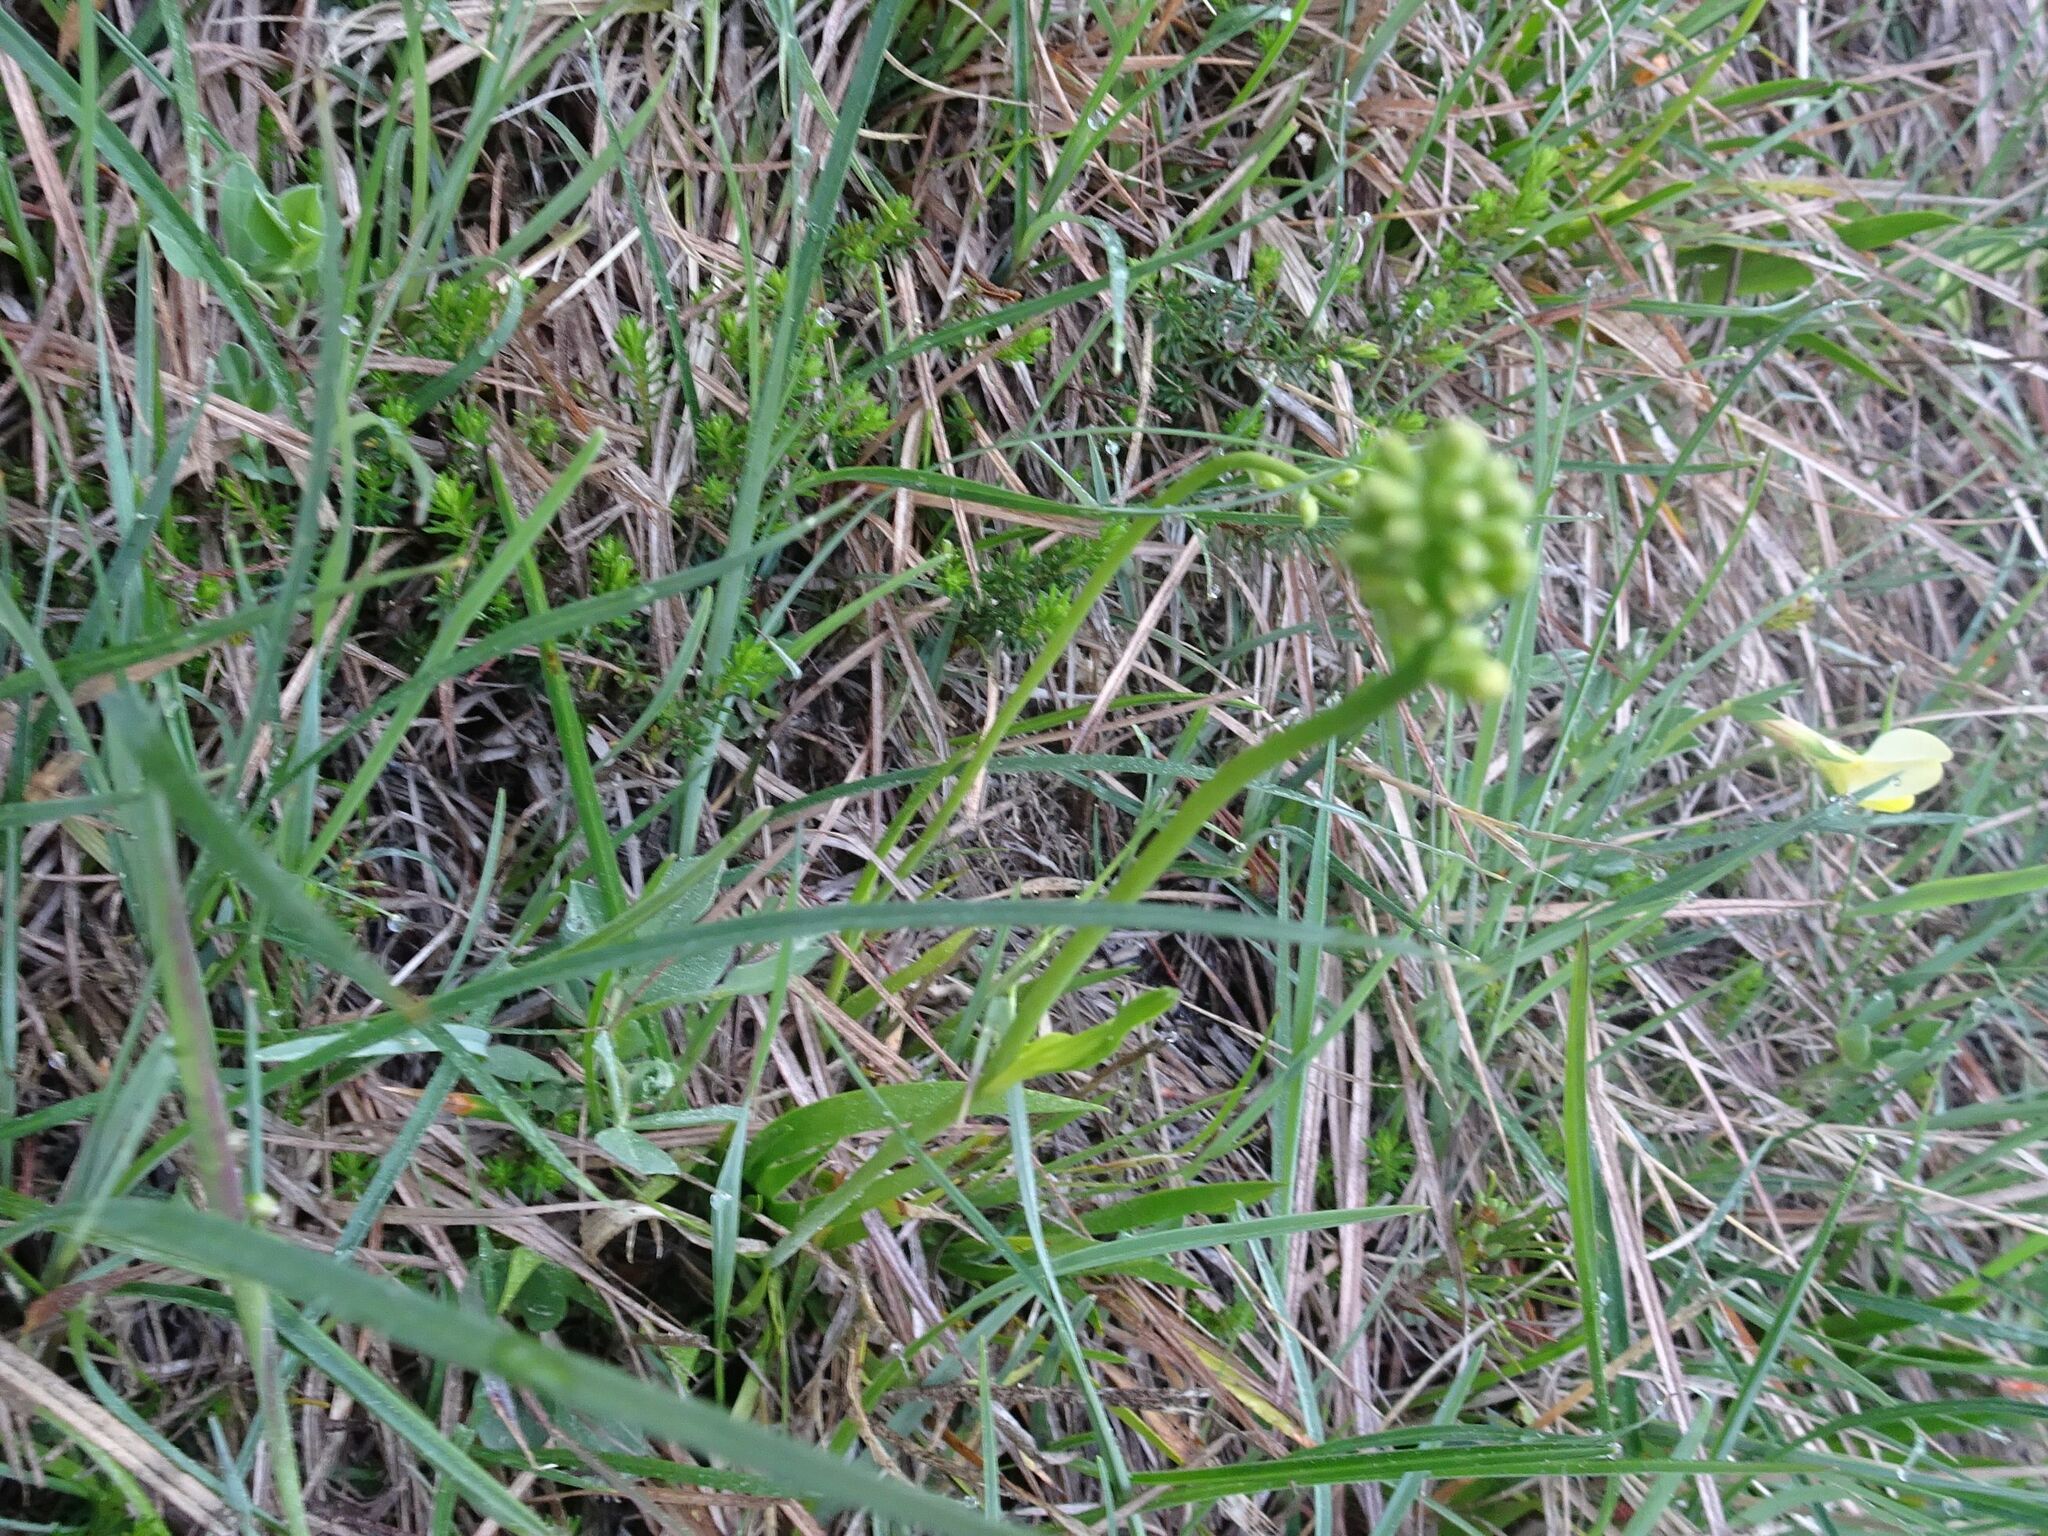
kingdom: Plantae
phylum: Tracheophyta
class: Liliopsida
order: Alismatales
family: Tofieldiaceae
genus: Tofieldia
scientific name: Tofieldia calyculata
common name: German-asphodel
